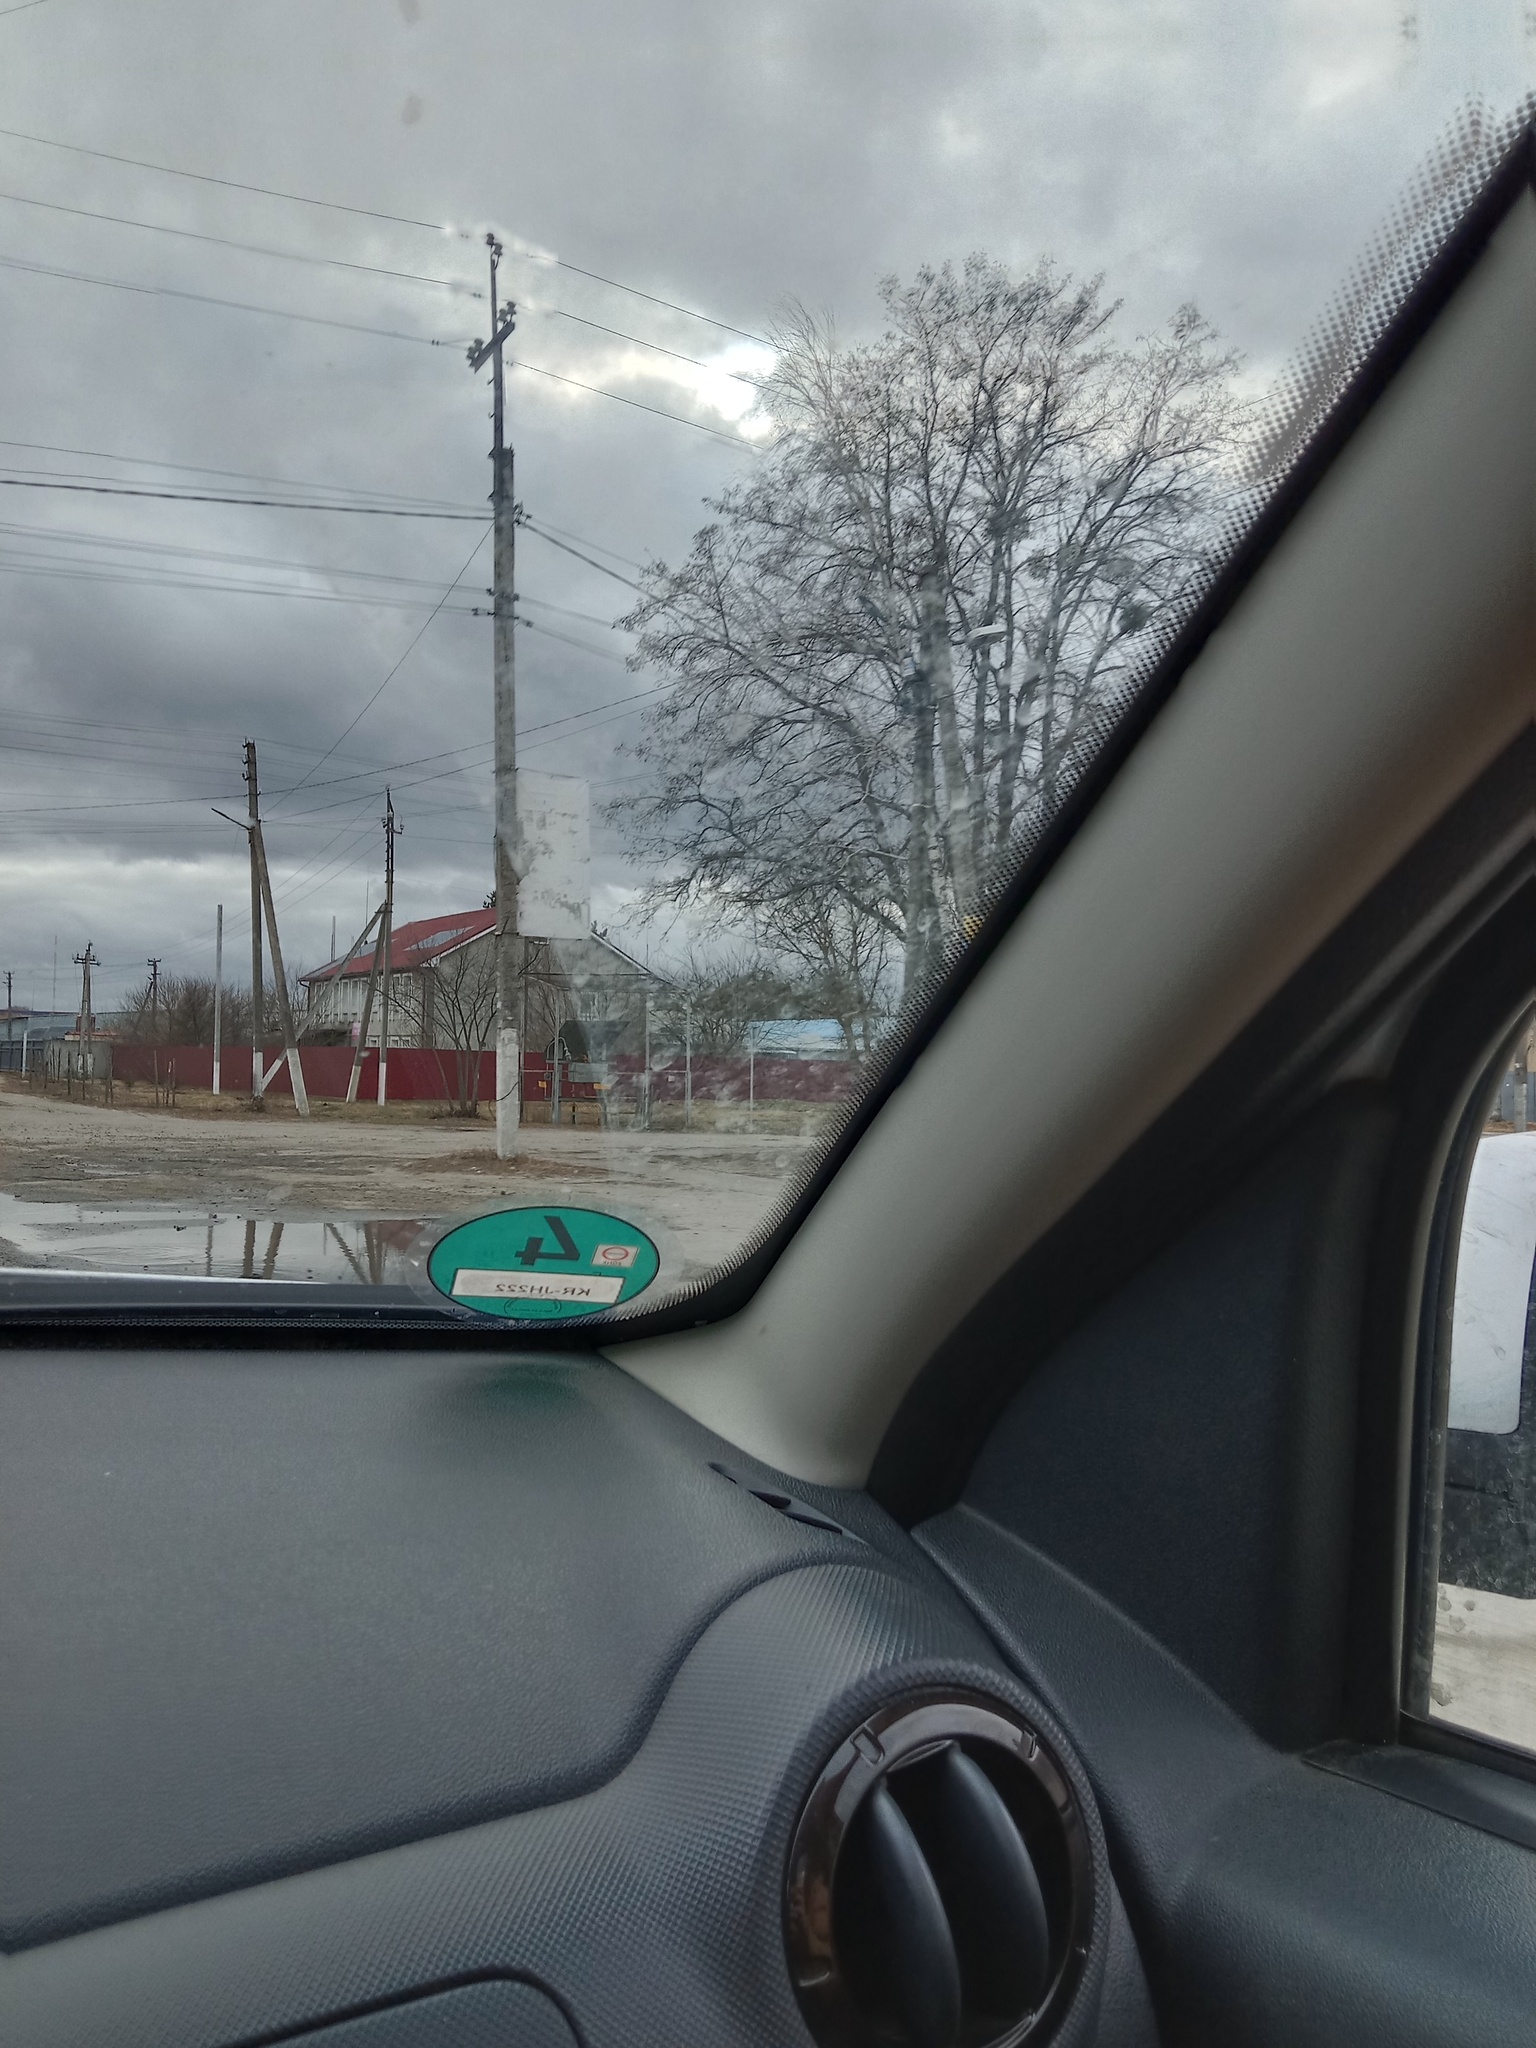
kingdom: Plantae
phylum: Tracheophyta
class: Magnoliopsida
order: Santalales
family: Viscaceae
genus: Viscum
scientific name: Viscum album
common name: Mistletoe
